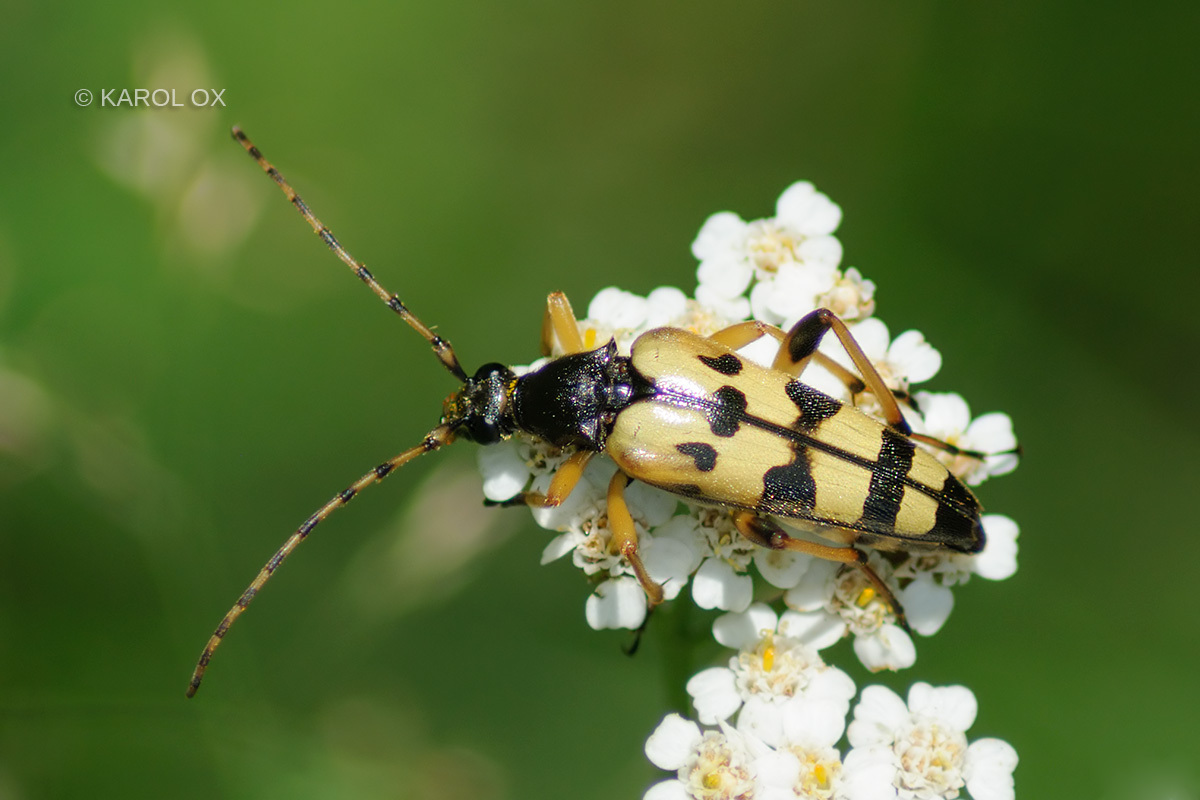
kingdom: Animalia
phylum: Arthropoda
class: Insecta
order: Coleoptera
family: Cerambycidae
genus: Rutpela
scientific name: Rutpela maculata
